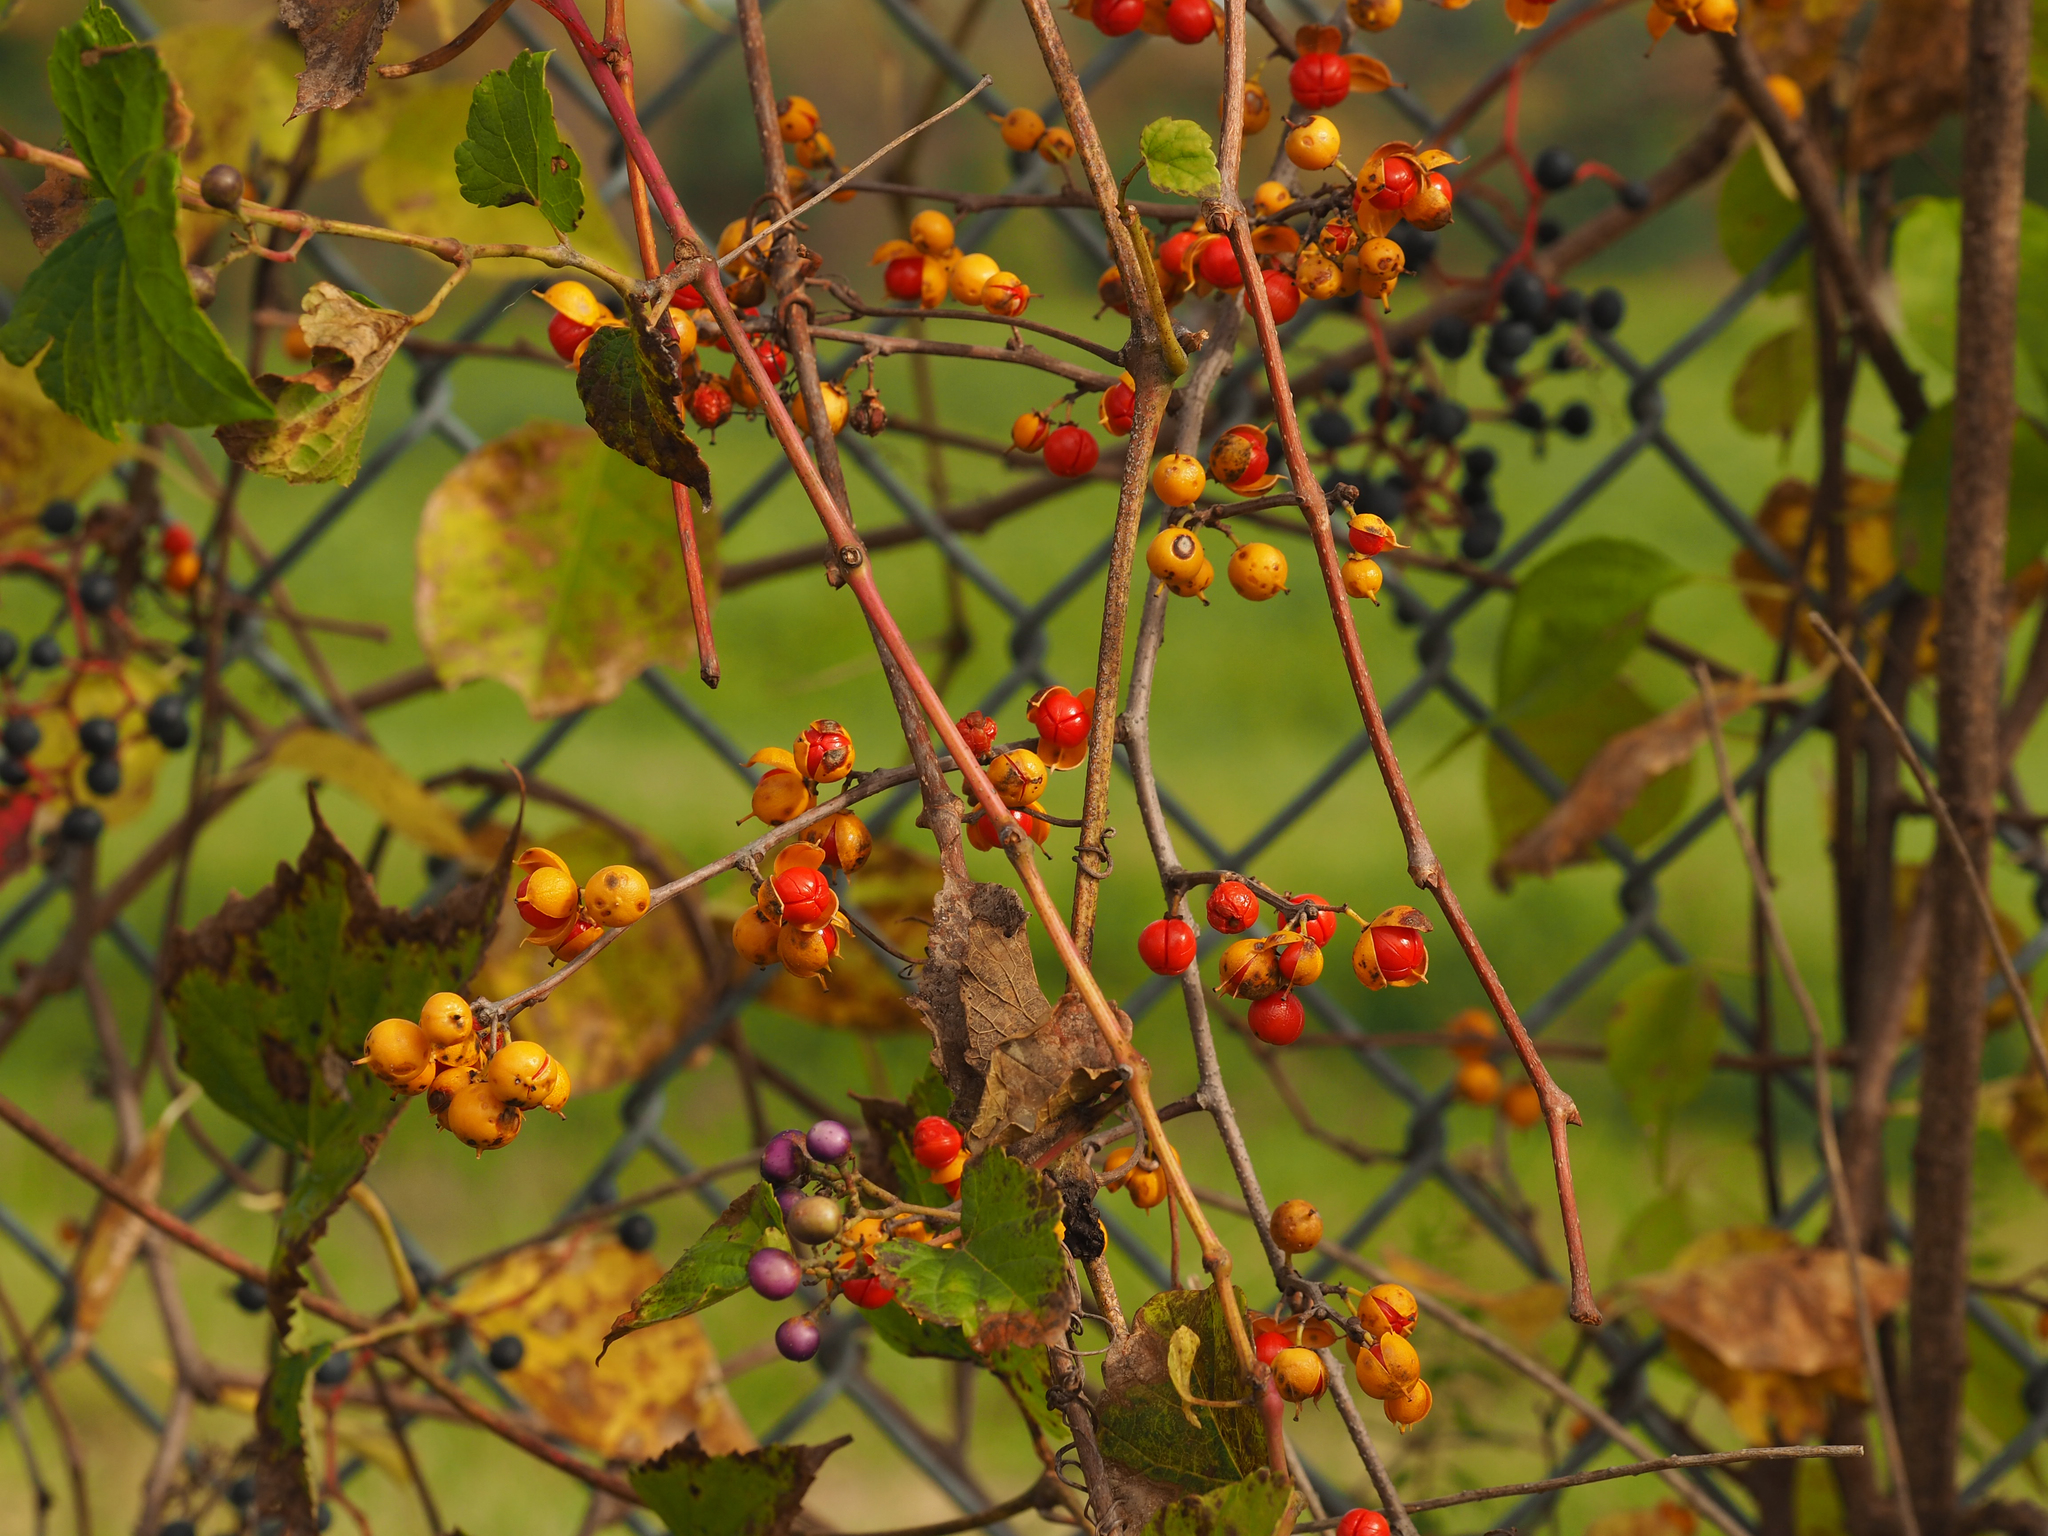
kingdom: Plantae
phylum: Tracheophyta
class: Magnoliopsida
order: Celastrales
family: Celastraceae
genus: Celastrus
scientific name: Celastrus orbiculatus
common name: Oriental bittersweet
